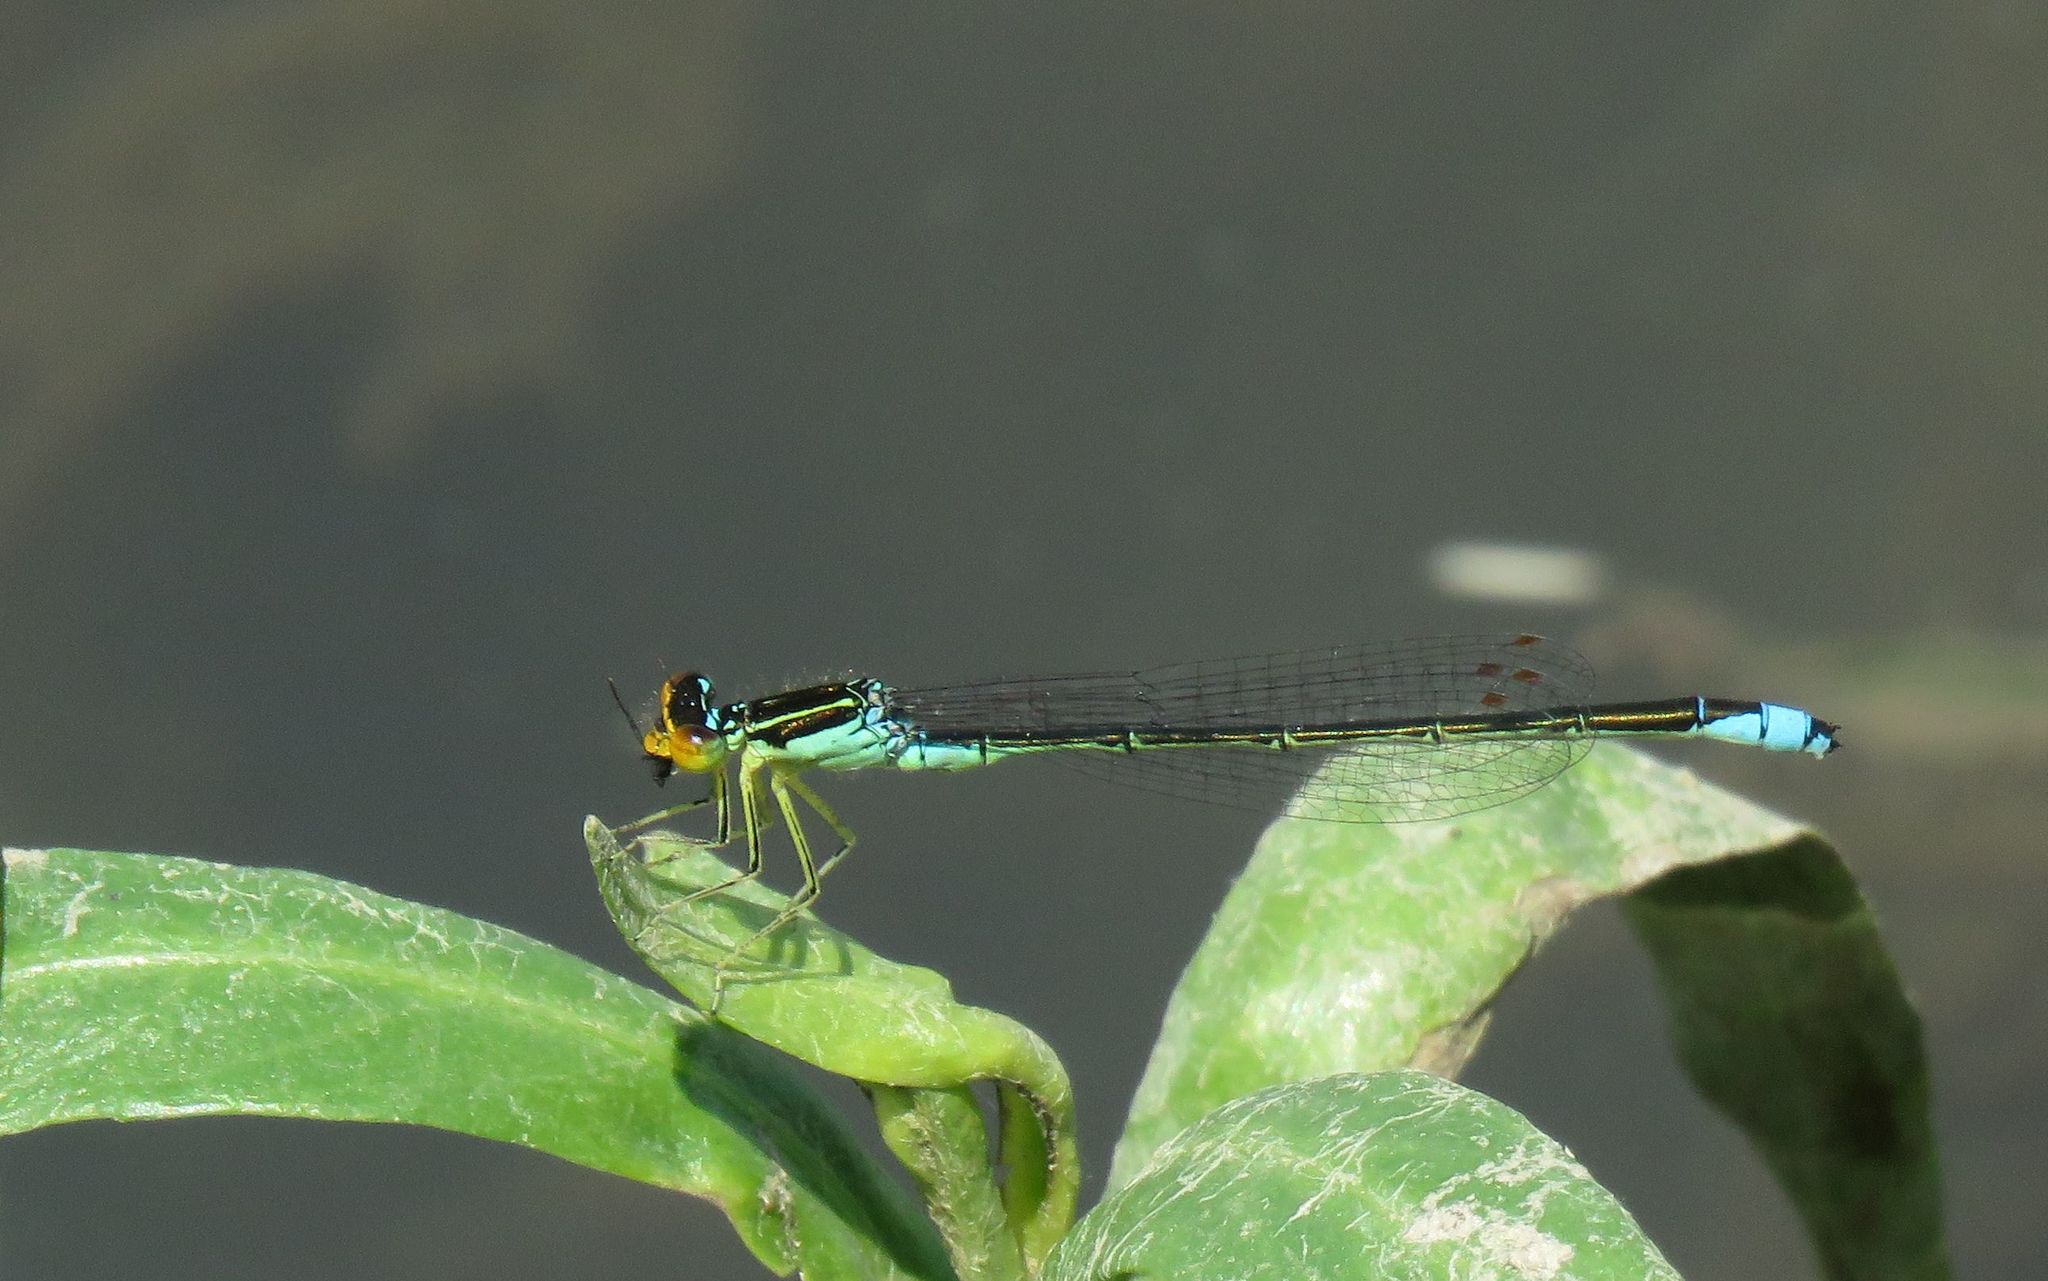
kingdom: Animalia
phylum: Arthropoda
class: Insecta
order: Odonata
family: Coenagrionidae
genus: Enallagma
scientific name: Enallagma antennatum
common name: Rainbow bluet
